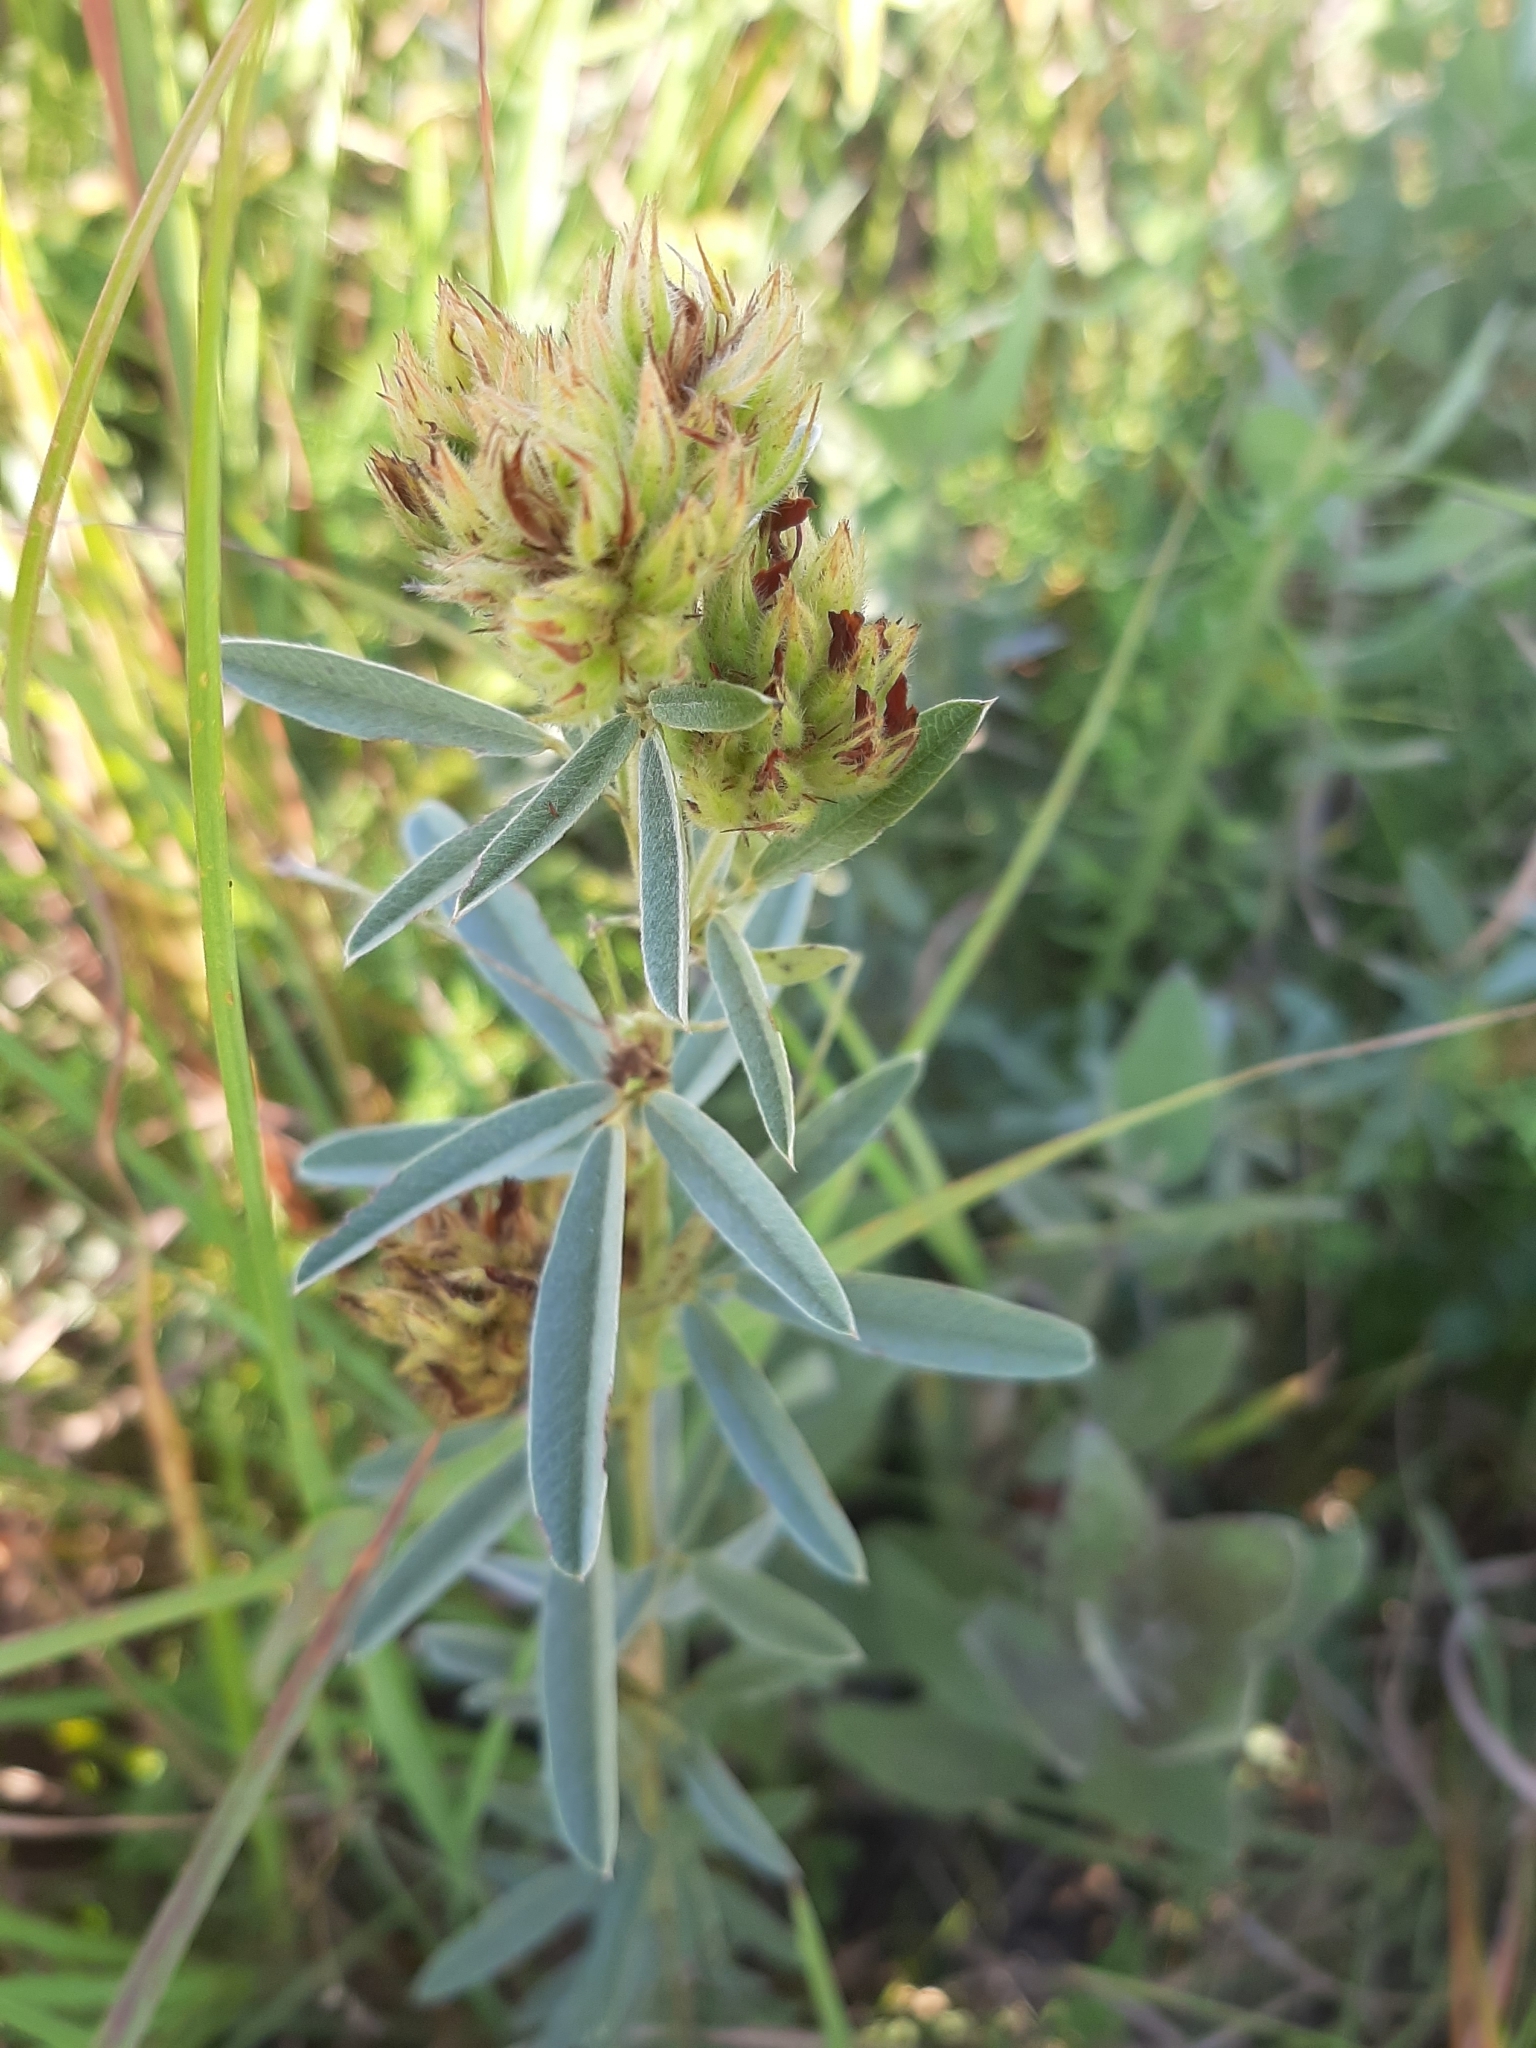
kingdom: Plantae
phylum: Tracheophyta
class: Magnoliopsida
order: Fabales
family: Fabaceae
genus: Lespedeza
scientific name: Lespedeza capitata
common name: Dusty clover
